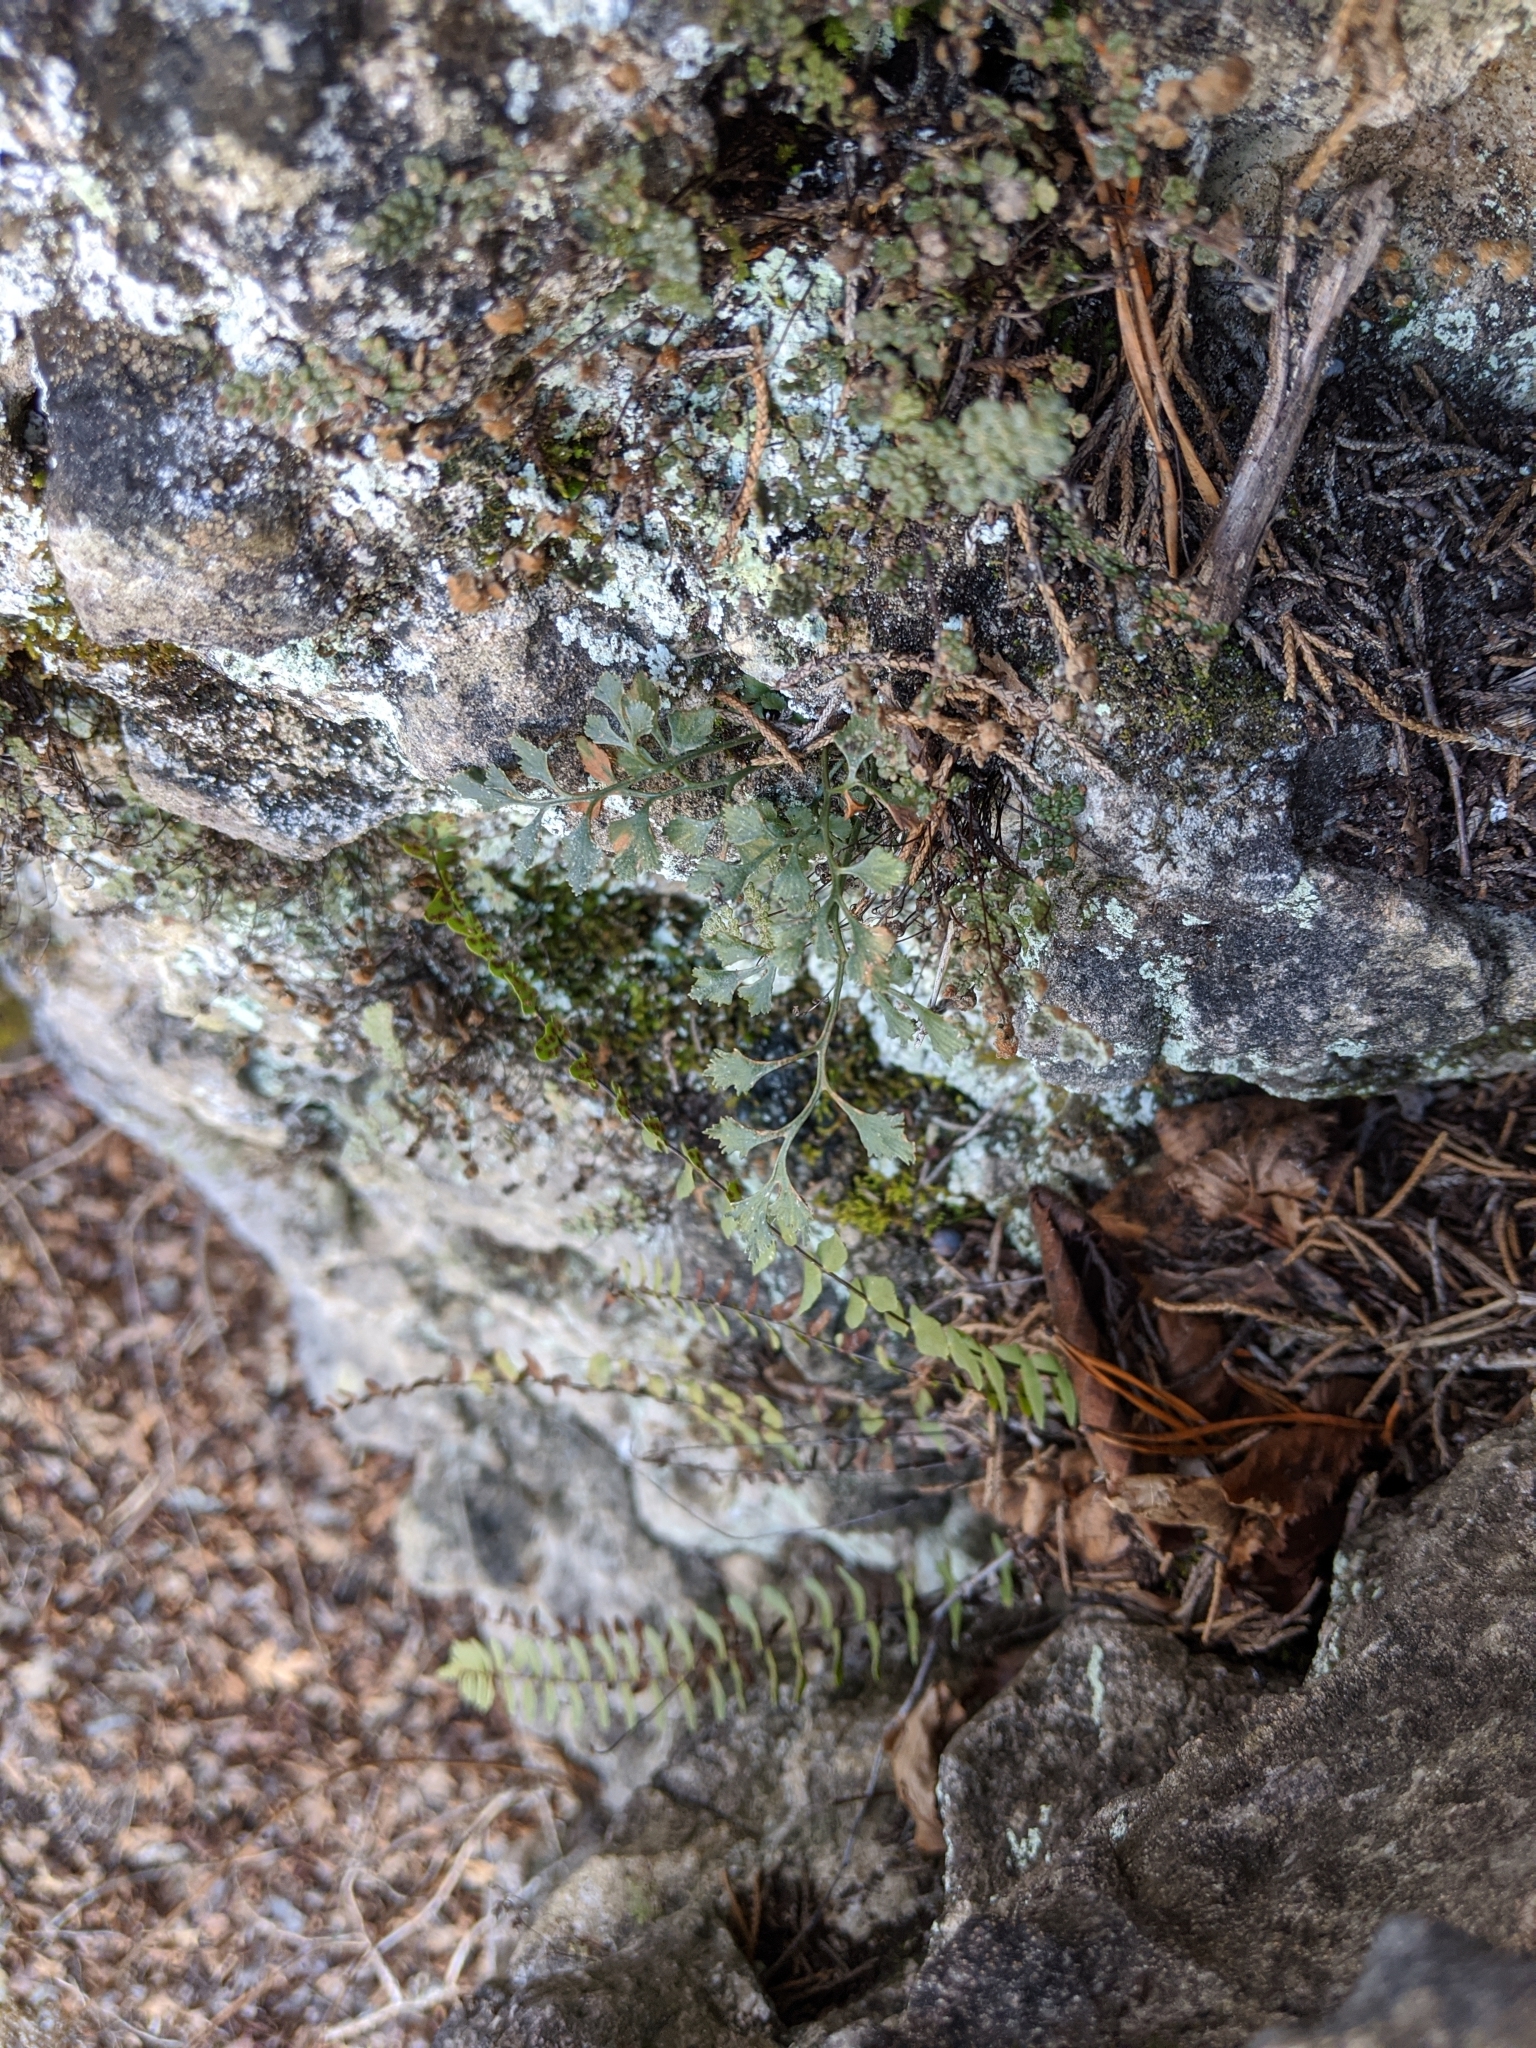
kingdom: Plantae
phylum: Tracheophyta
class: Polypodiopsida
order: Polypodiales
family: Aspleniaceae
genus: Asplenium
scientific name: Asplenium ruta-muraria
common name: Wall-rue
